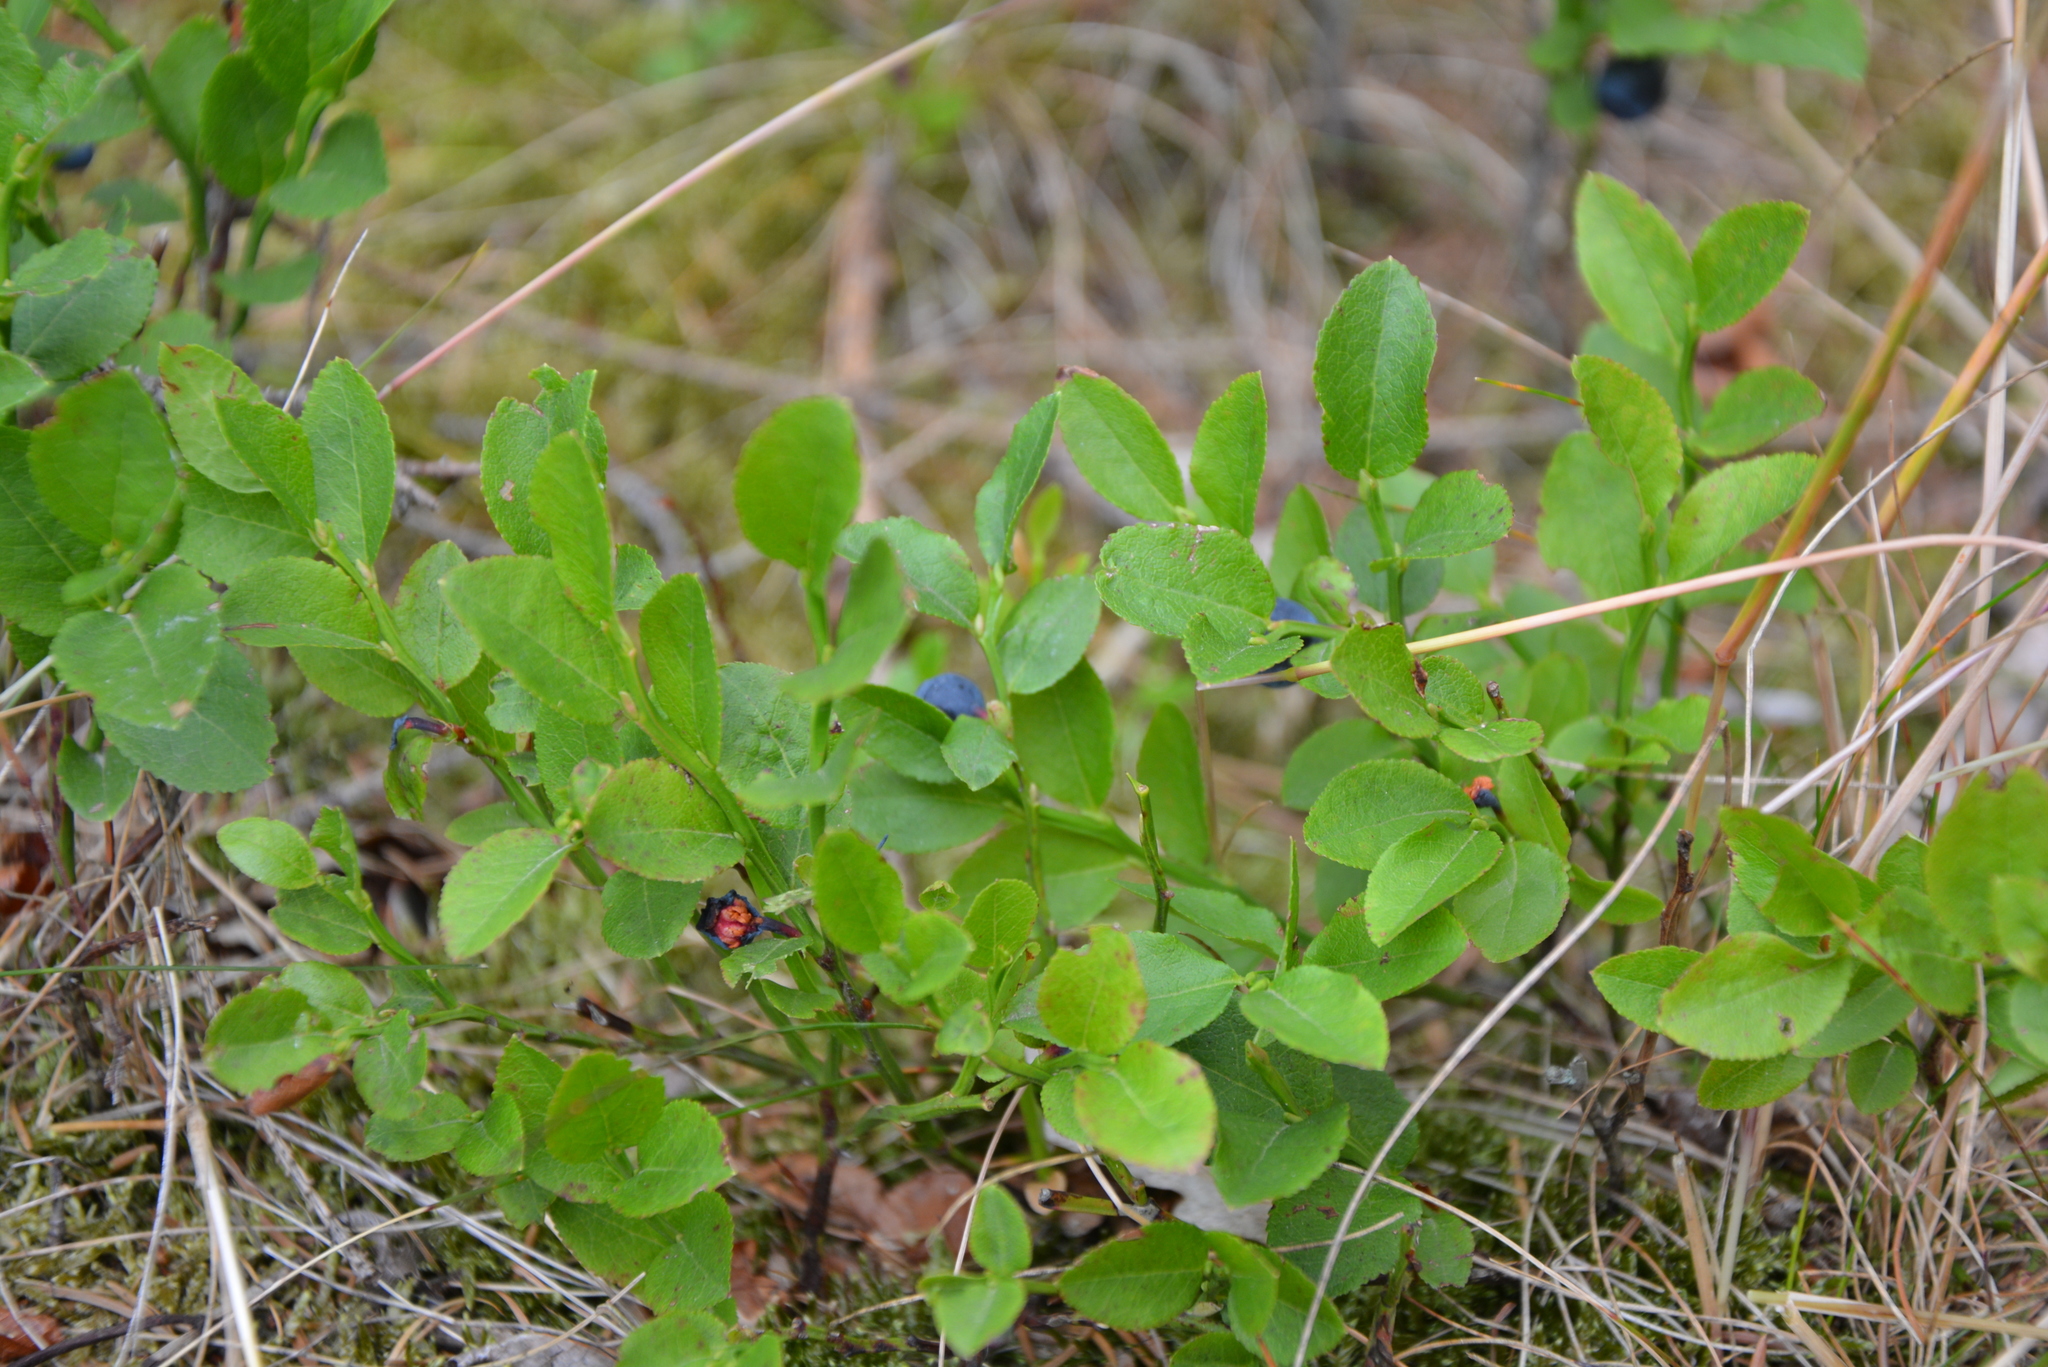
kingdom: Plantae
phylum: Tracheophyta
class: Magnoliopsida
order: Ericales
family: Ericaceae
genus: Vaccinium
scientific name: Vaccinium myrtillus
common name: Bilberry
